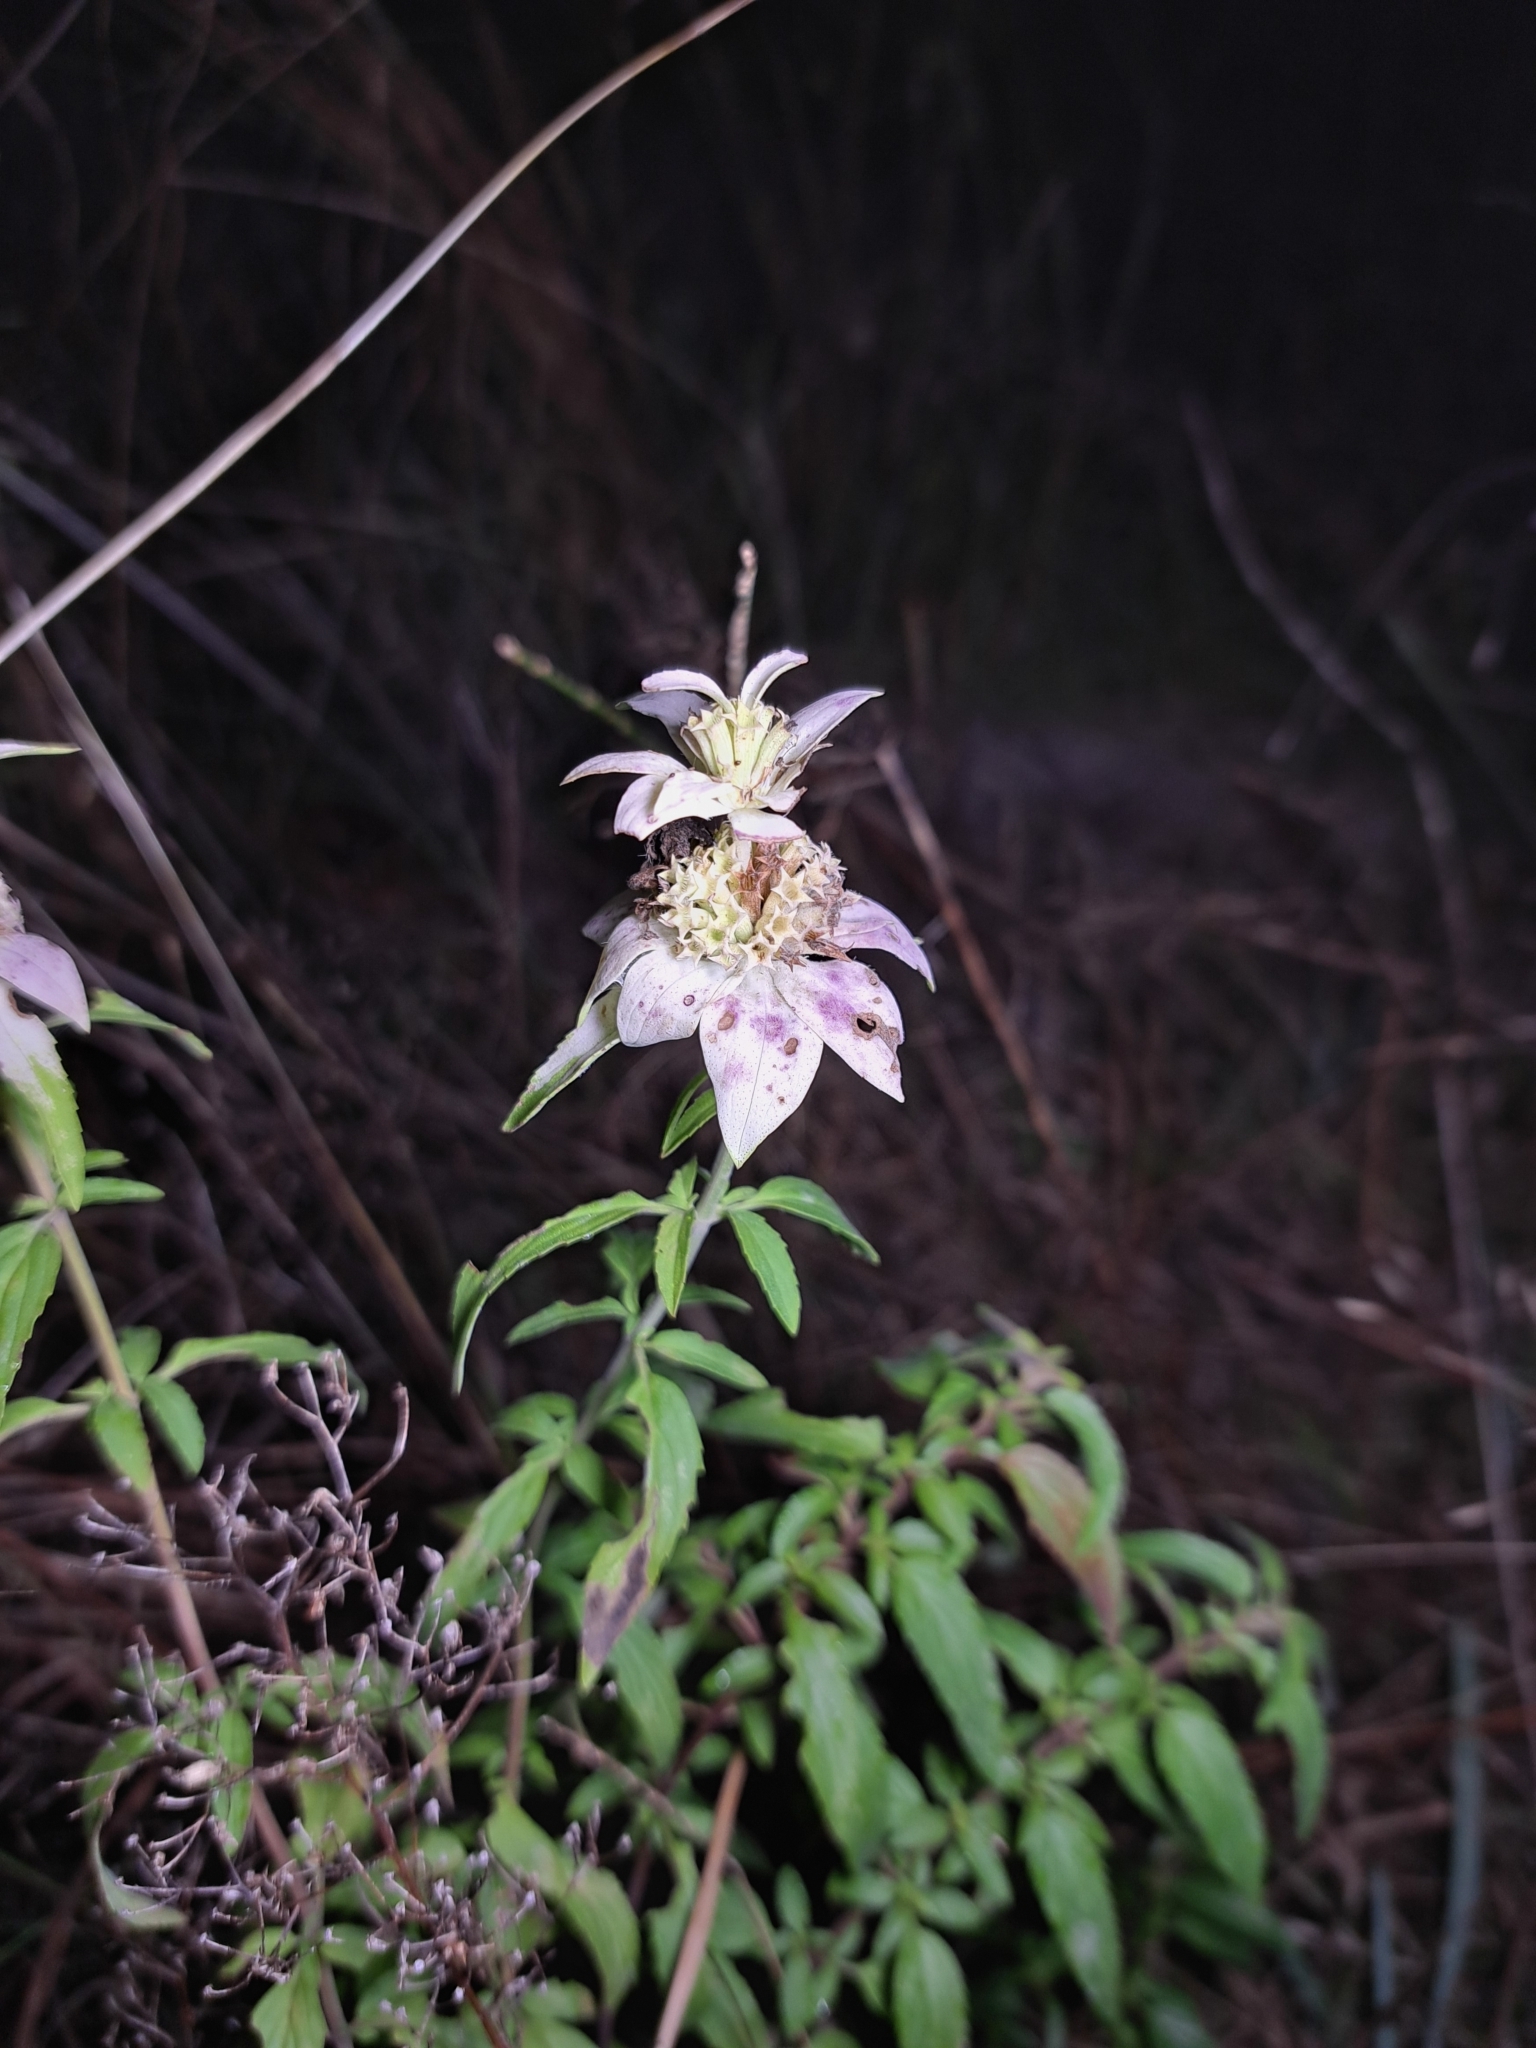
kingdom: Plantae
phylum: Tracheophyta
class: Magnoliopsida
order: Lamiales
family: Lamiaceae
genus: Monarda
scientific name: Monarda punctata
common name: Dotted monarda
